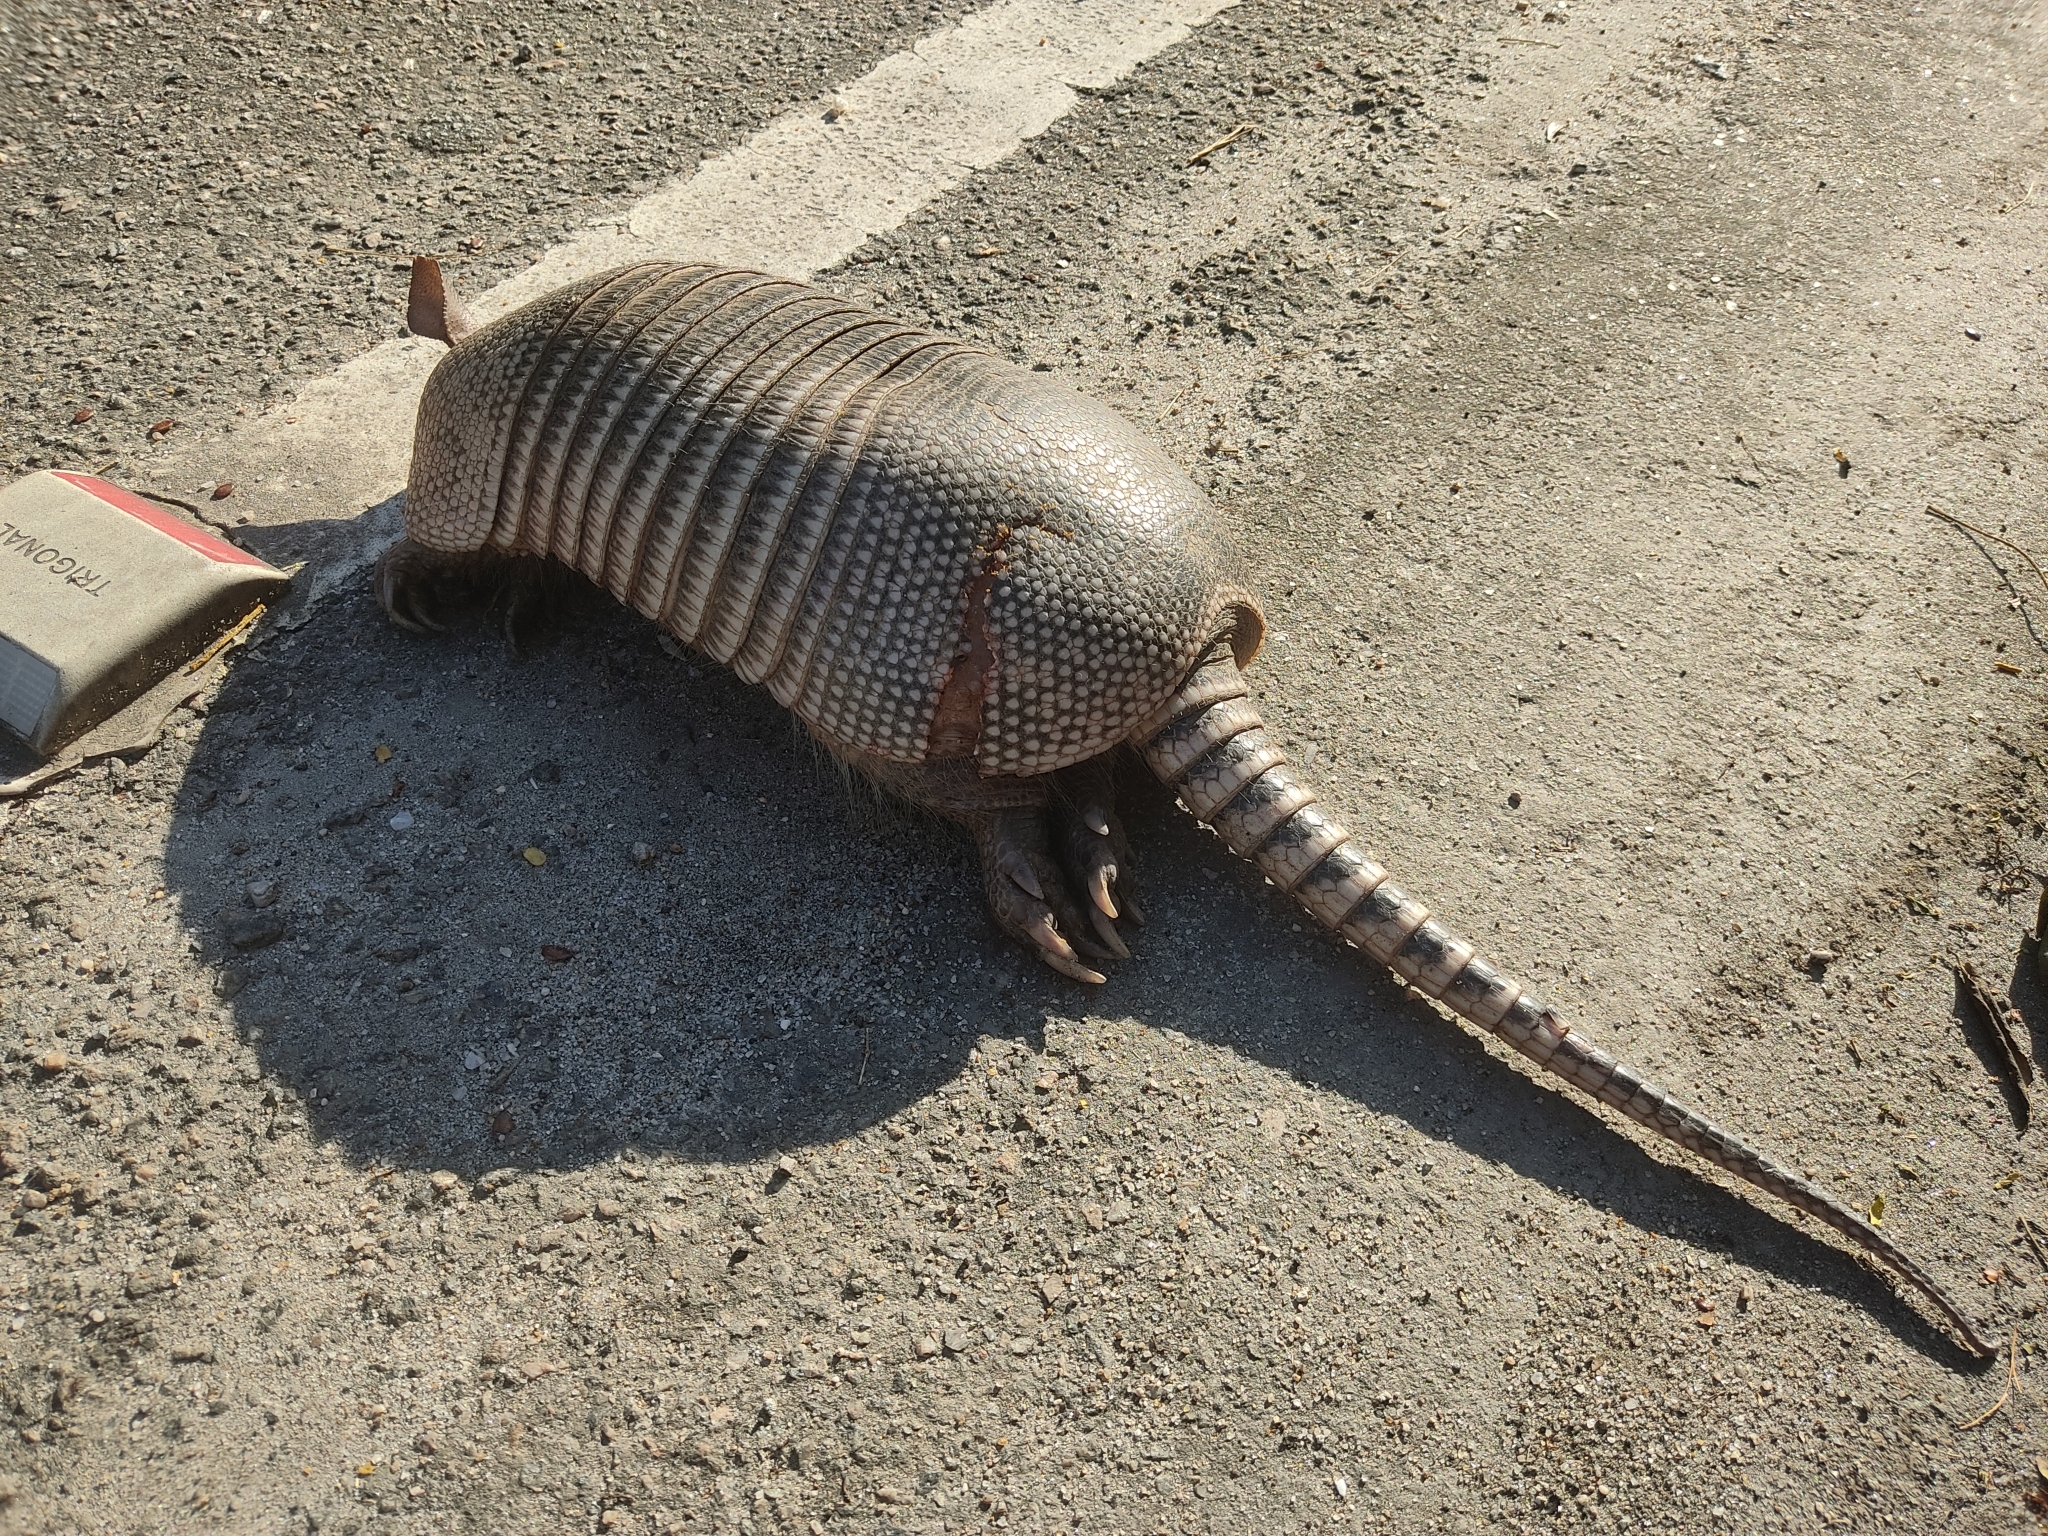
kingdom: Animalia
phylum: Chordata
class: Mammalia
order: Cingulata
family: Dasypodidae
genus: Dasypus
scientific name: Dasypus novemcinctus
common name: Nine-banded armadillo
